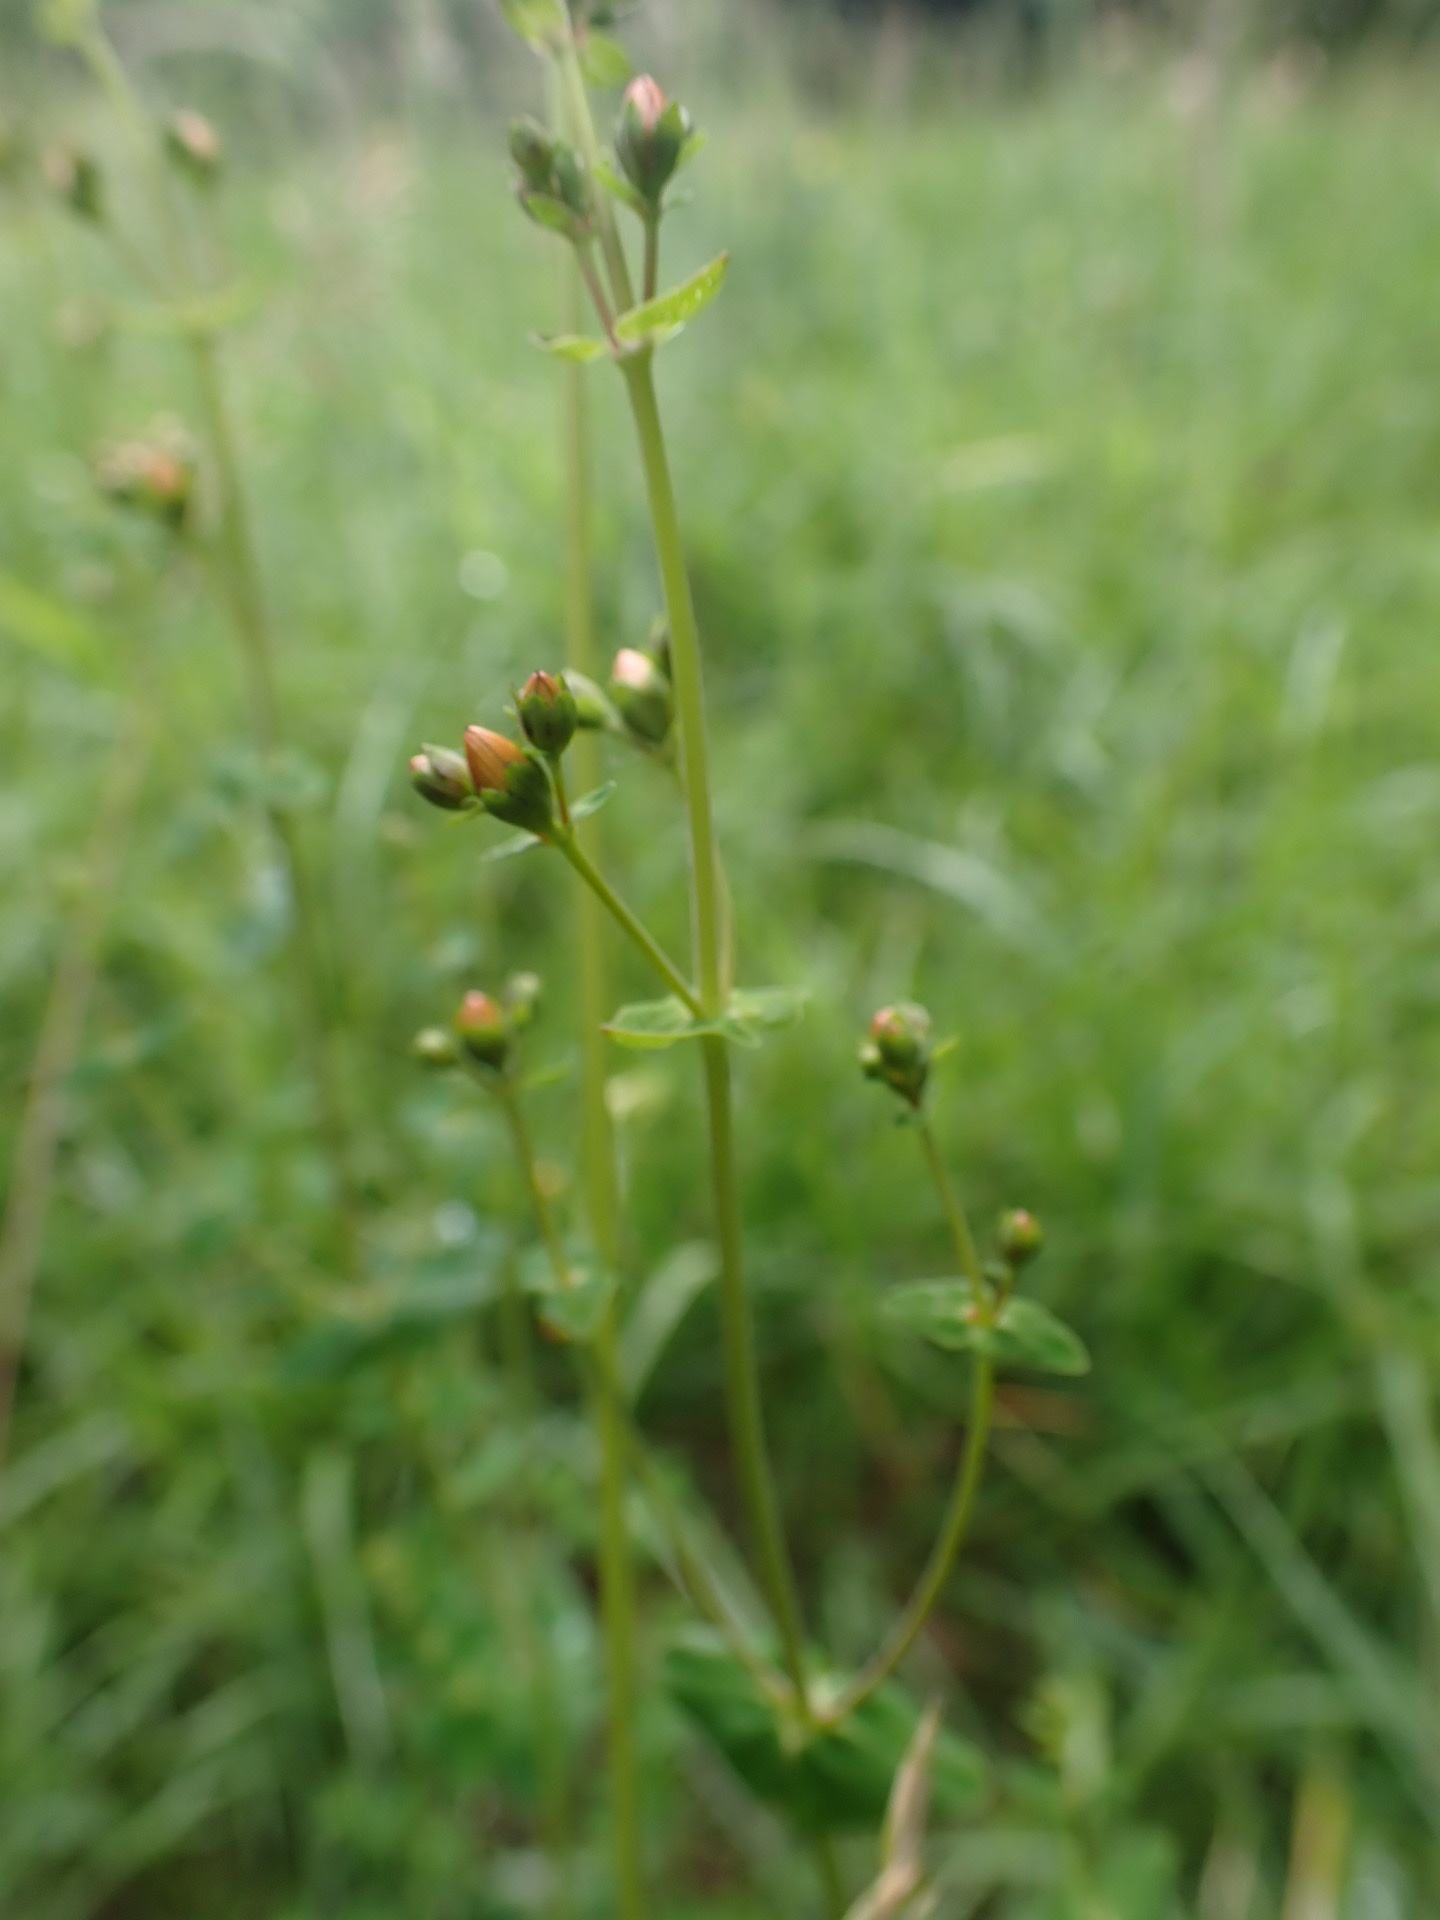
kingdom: Plantae
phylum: Tracheophyta
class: Magnoliopsida
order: Malpighiales
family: Hypericaceae
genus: Hypericum
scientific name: Hypericum pulchrum
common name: Slender st. john's-wort
